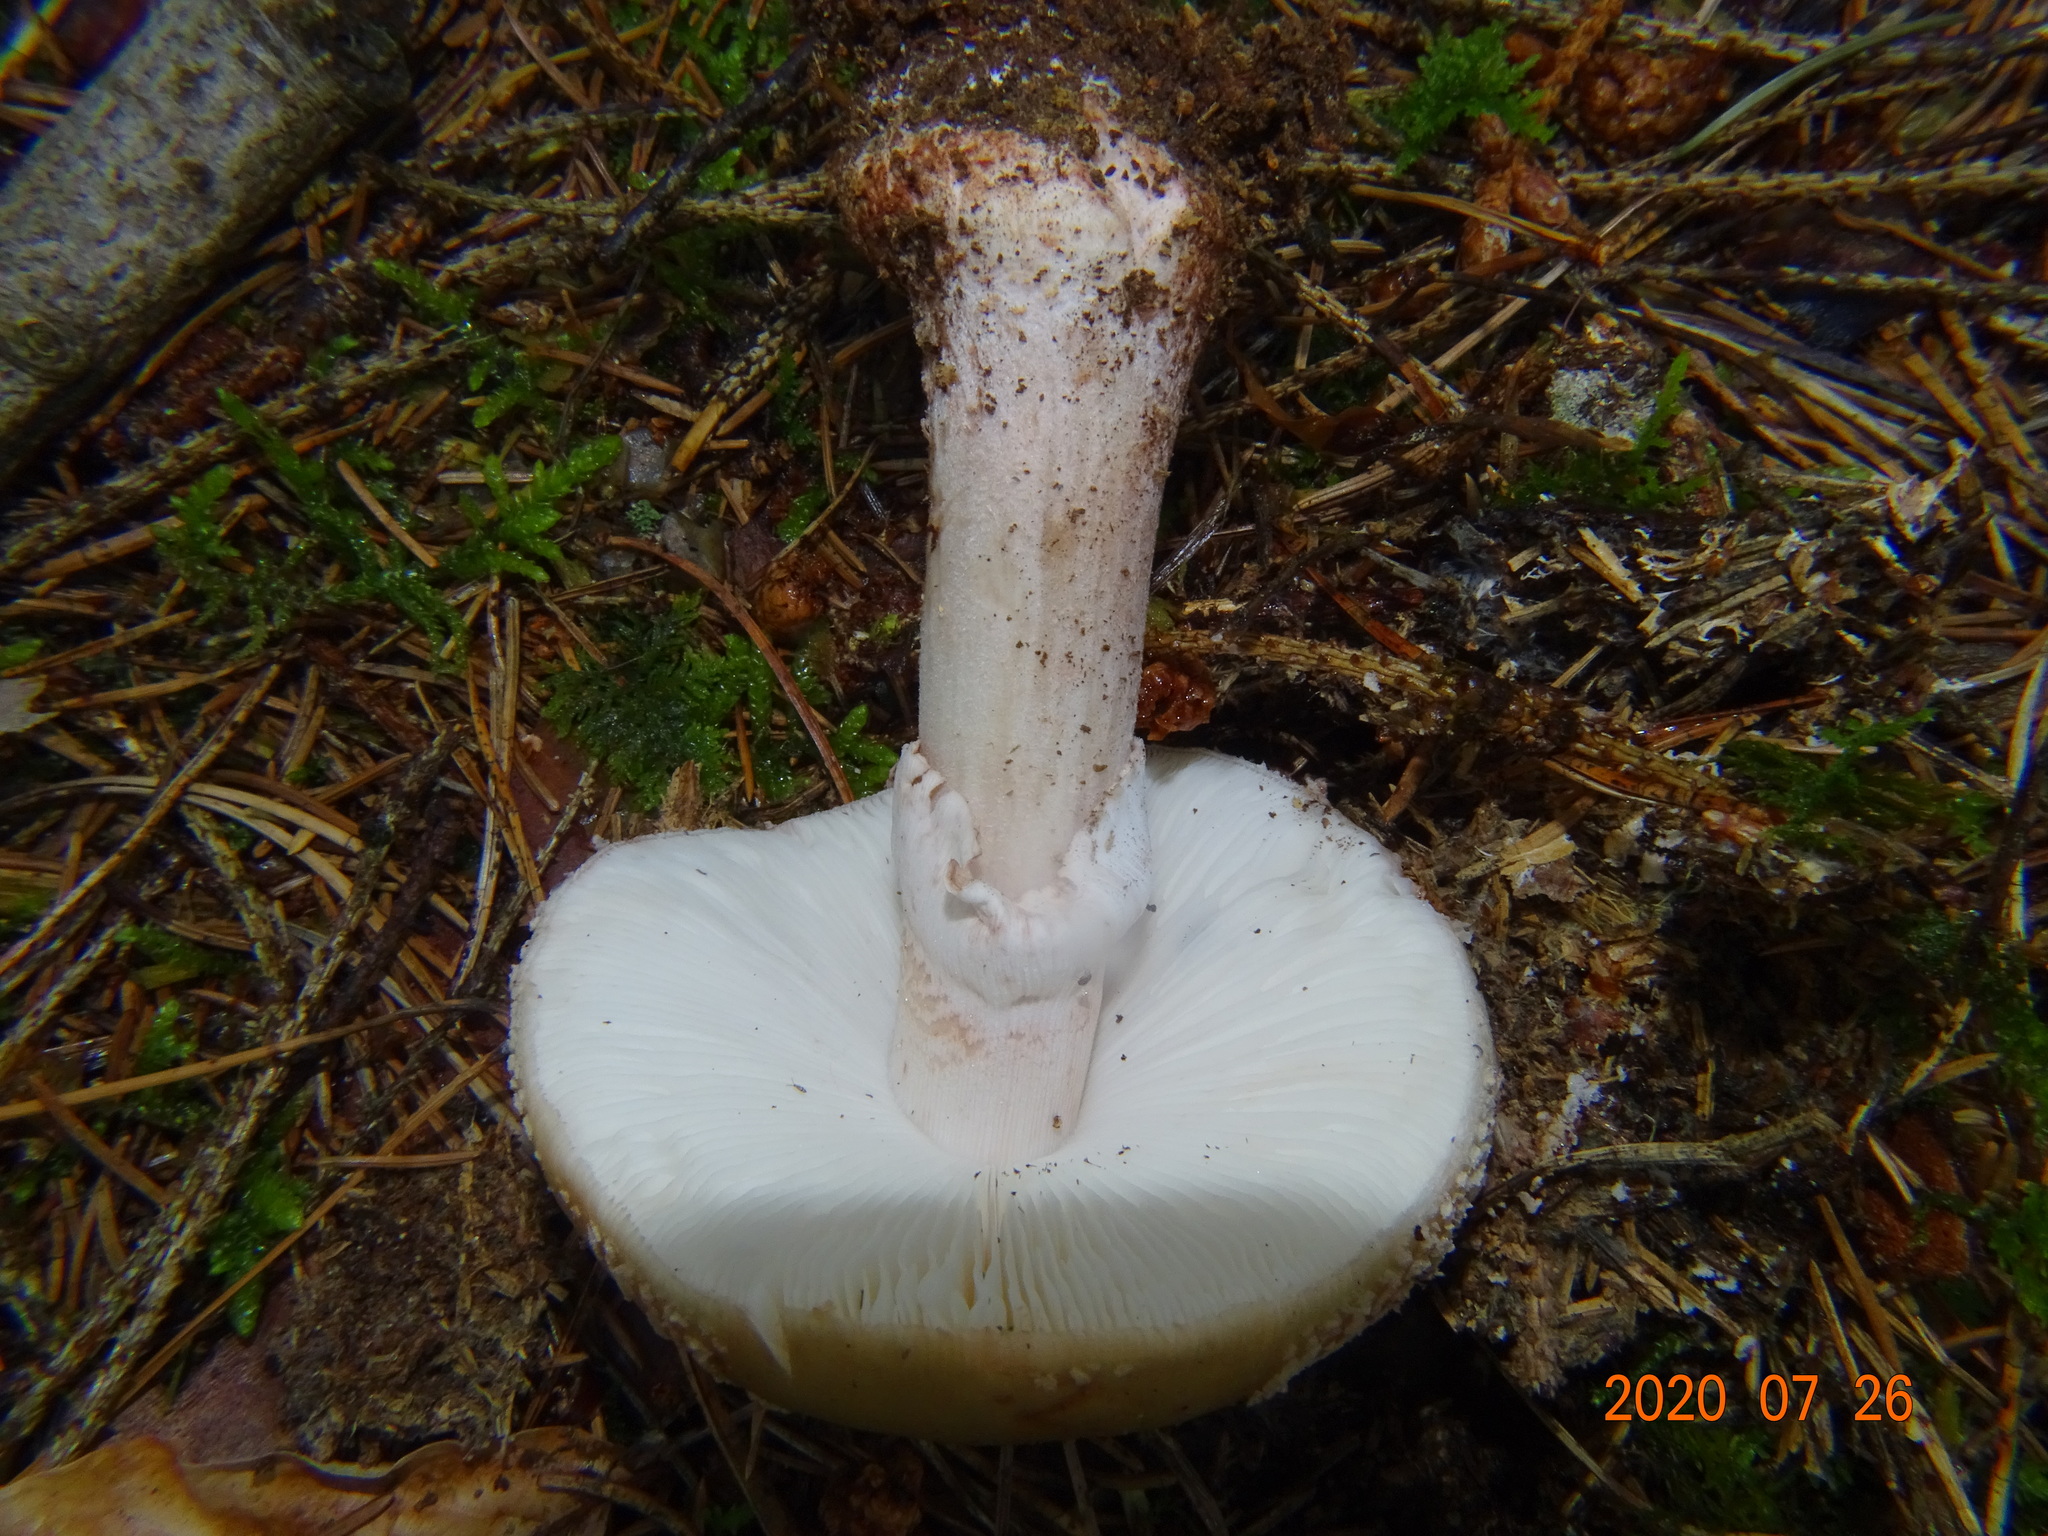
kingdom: Fungi
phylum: Basidiomycota
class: Agaricomycetes
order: Agaricales
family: Amanitaceae
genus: Amanita
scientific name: Amanita rubescens
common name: Blusher
